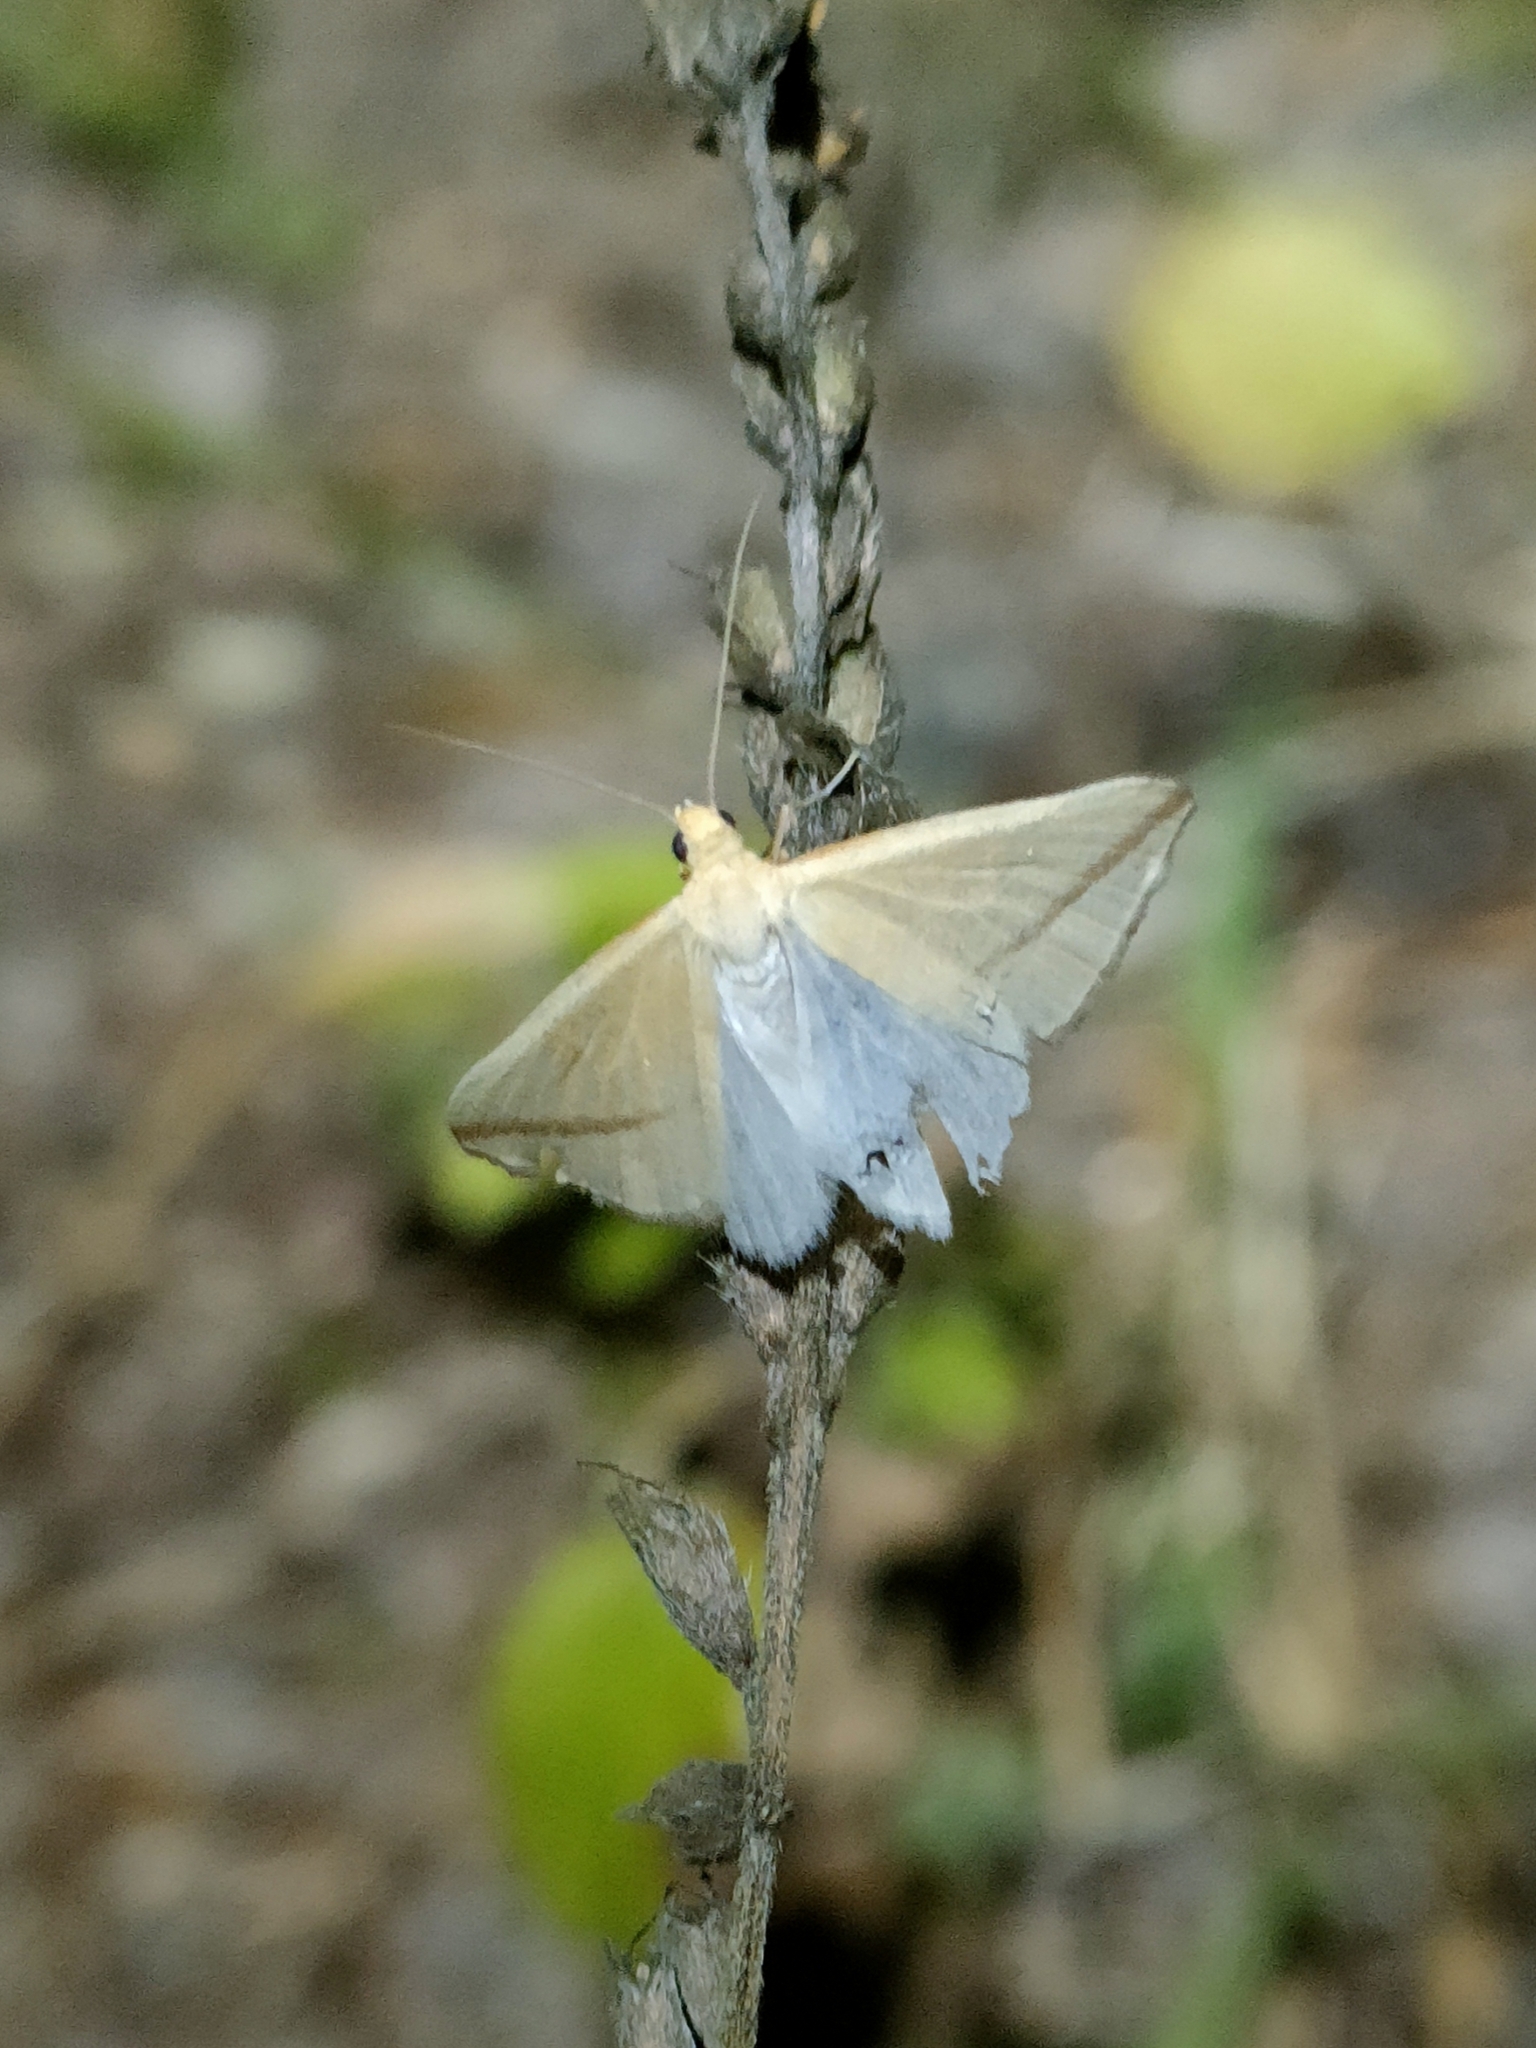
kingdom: Animalia
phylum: Arthropoda
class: Insecta
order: Lepidoptera
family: Geometridae
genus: Rhodometra
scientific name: Rhodometra sacraria
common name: Vestal
